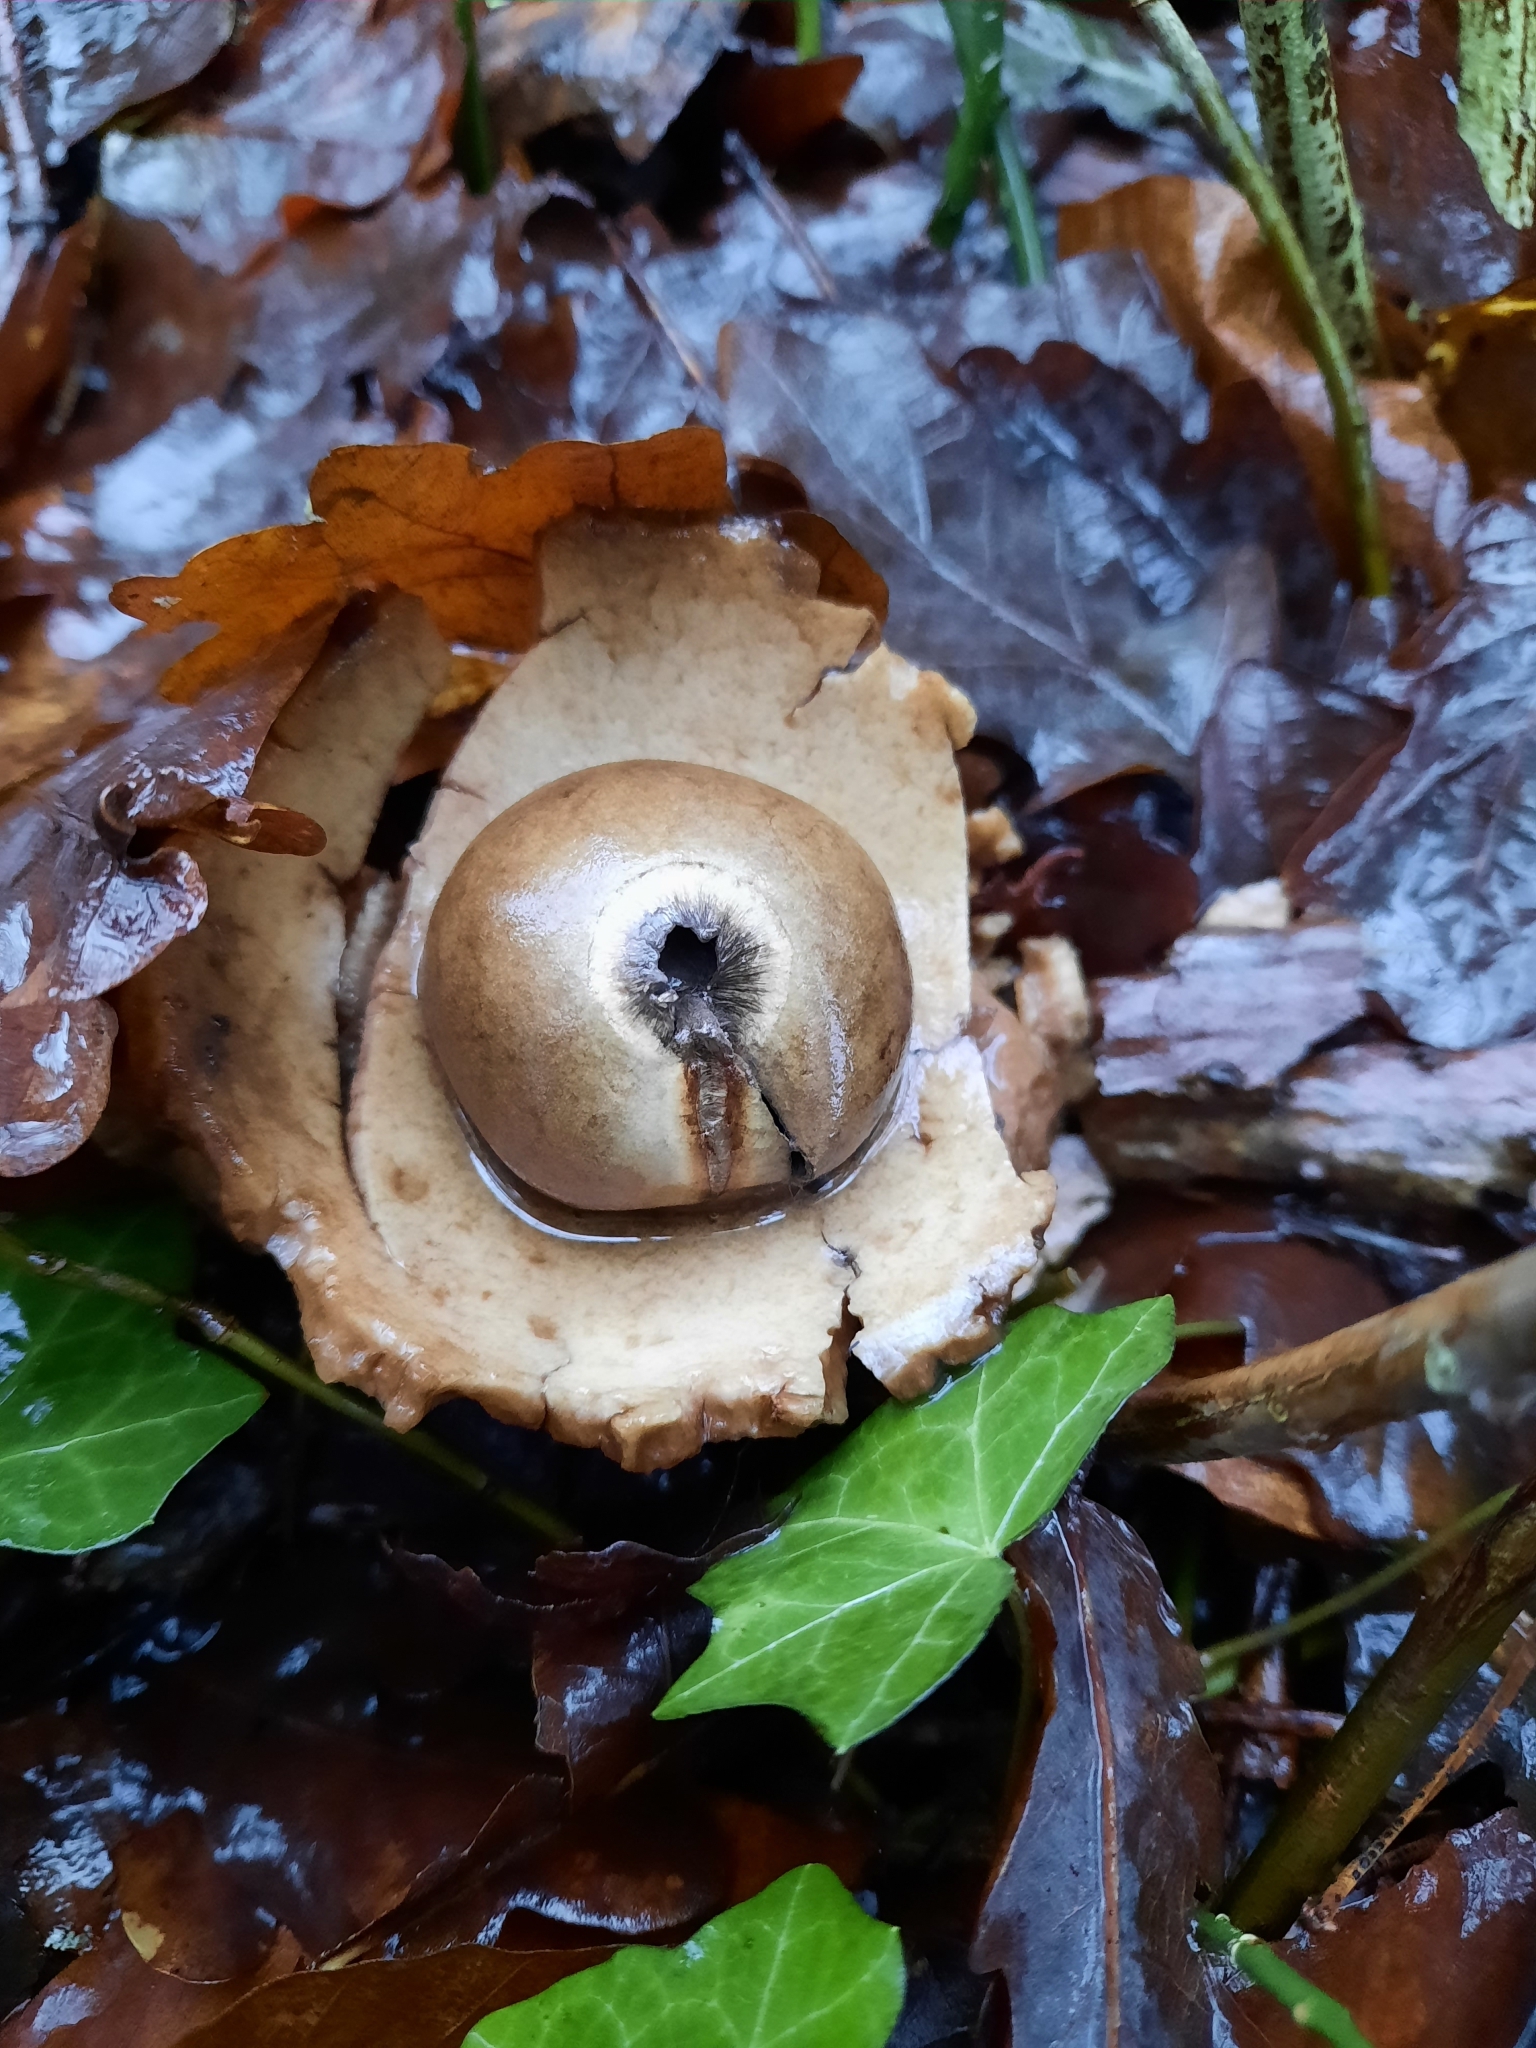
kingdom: Fungi
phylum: Basidiomycota
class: Agaricomycetes
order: Geastrales
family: Geastraceae
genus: Geastrum
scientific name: Geastrum michelianum
